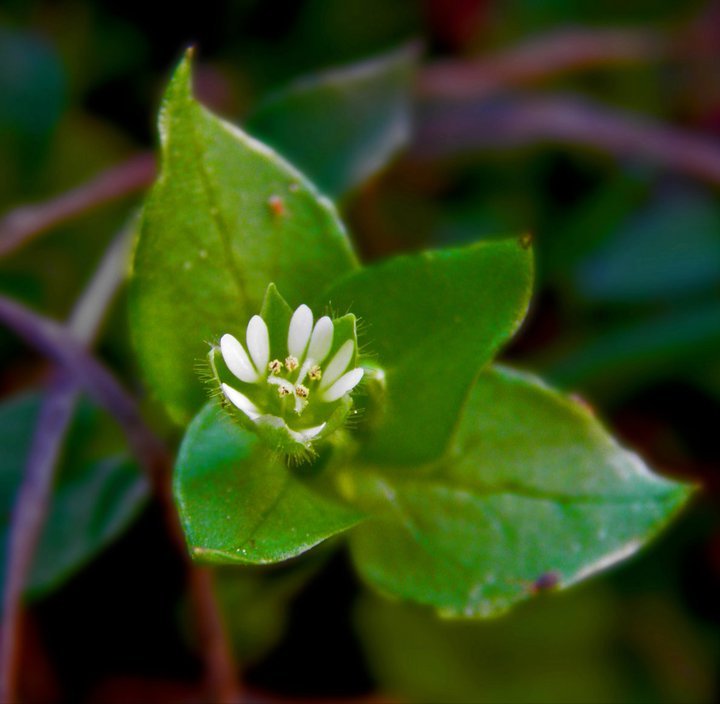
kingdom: Plantae
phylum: Tracheophyta
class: Magnoliopsida
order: Caryophyllales
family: Caryophyllaceae
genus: Stellaria
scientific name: Stellaria media
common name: Common chickweed
